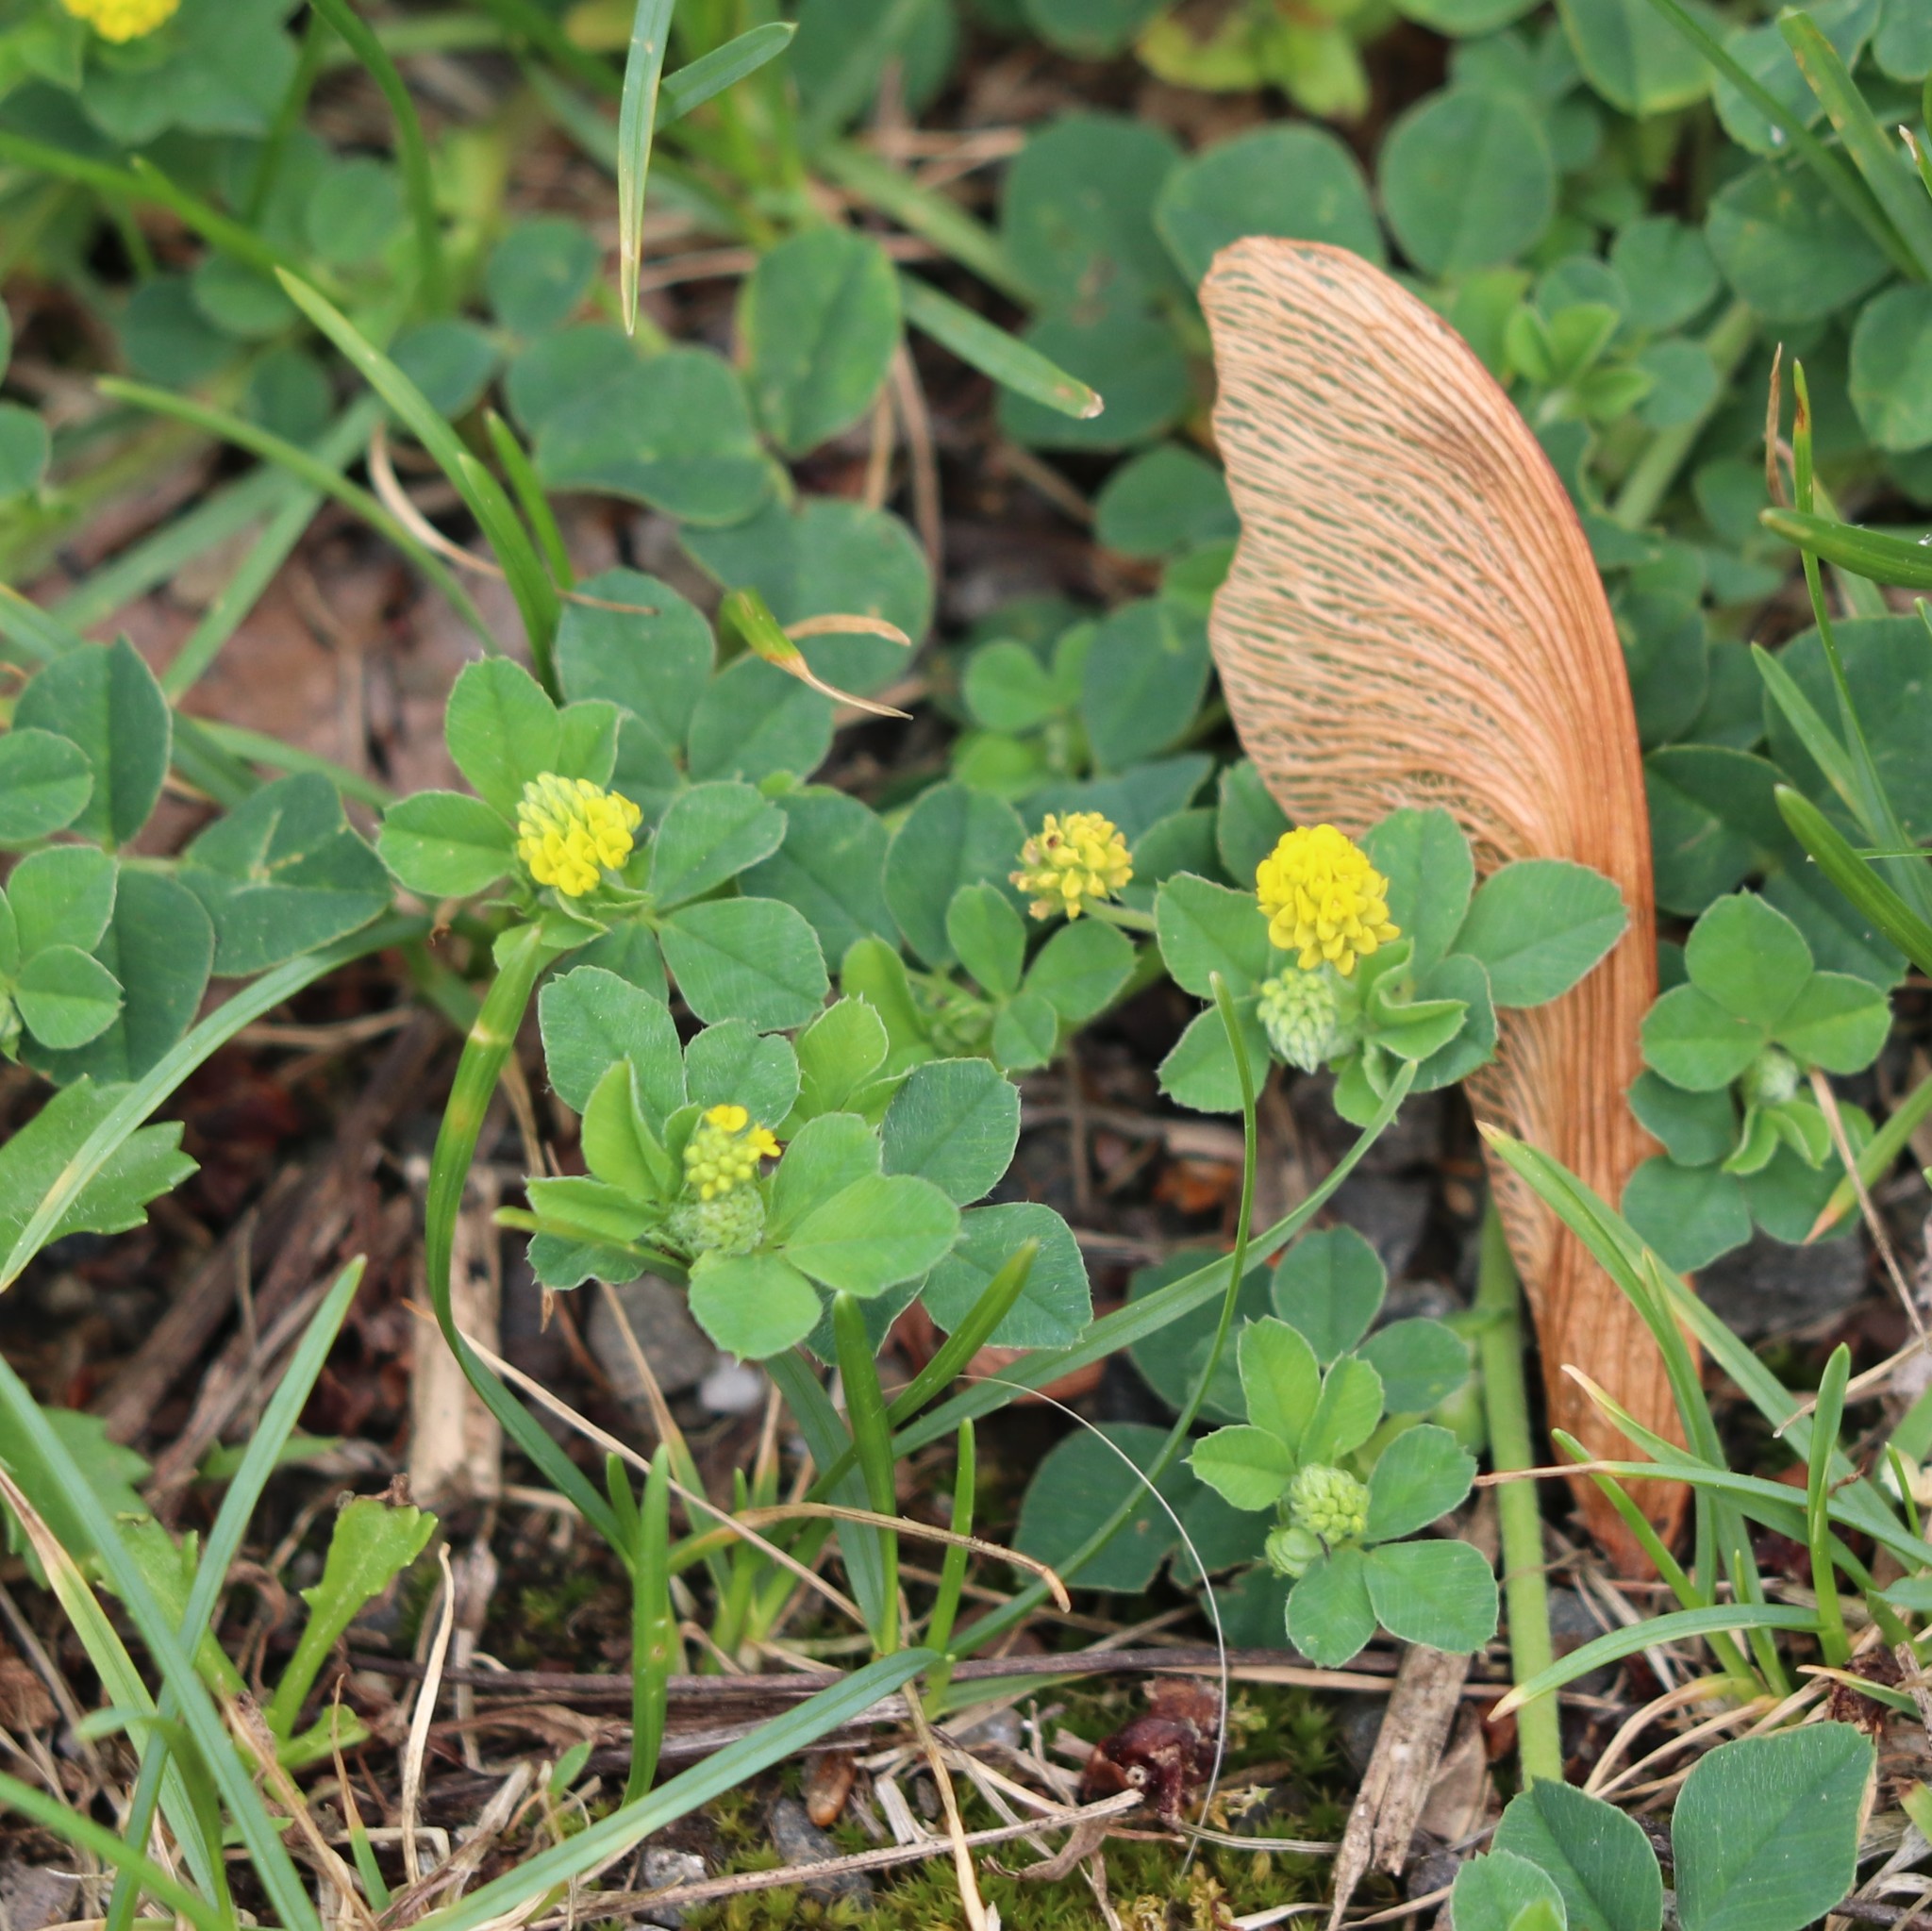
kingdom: Plantae
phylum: Tracheophyta
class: Magnoliopsida
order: Fabales
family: Fabaceae
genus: Medicago
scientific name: Medicago lupulina
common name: Black medick
